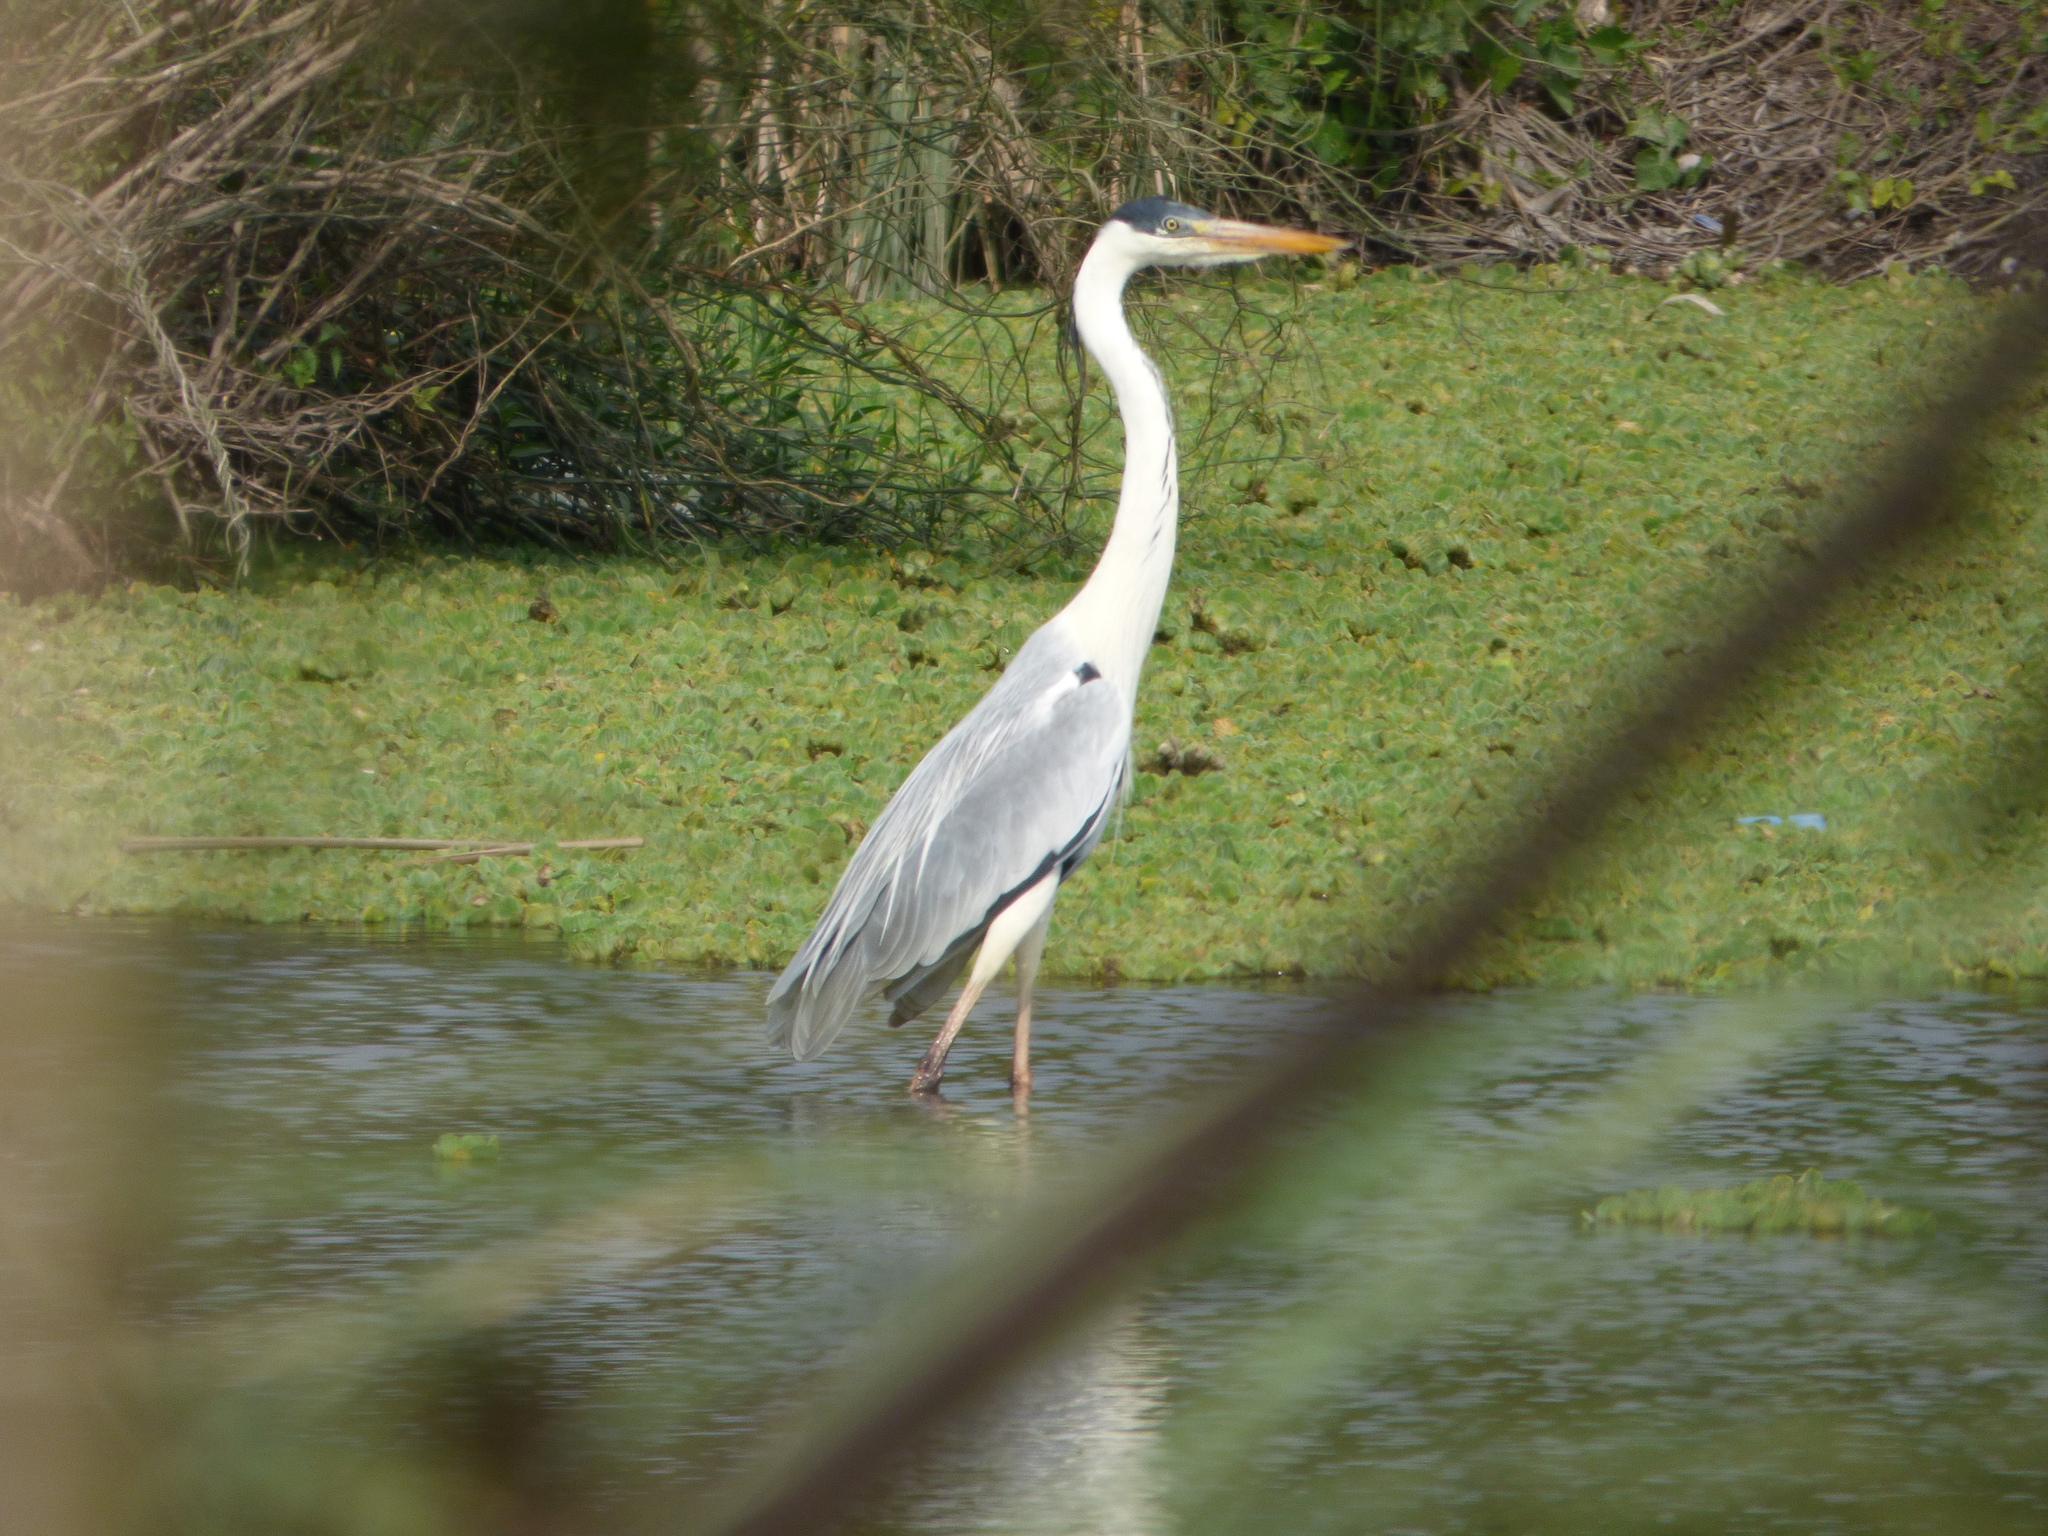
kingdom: Animalia
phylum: Chordata
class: Aves
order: Pelecaniformes
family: Ardeidae
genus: Ardea
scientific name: Ardea cocoi
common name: Cocoi heron
